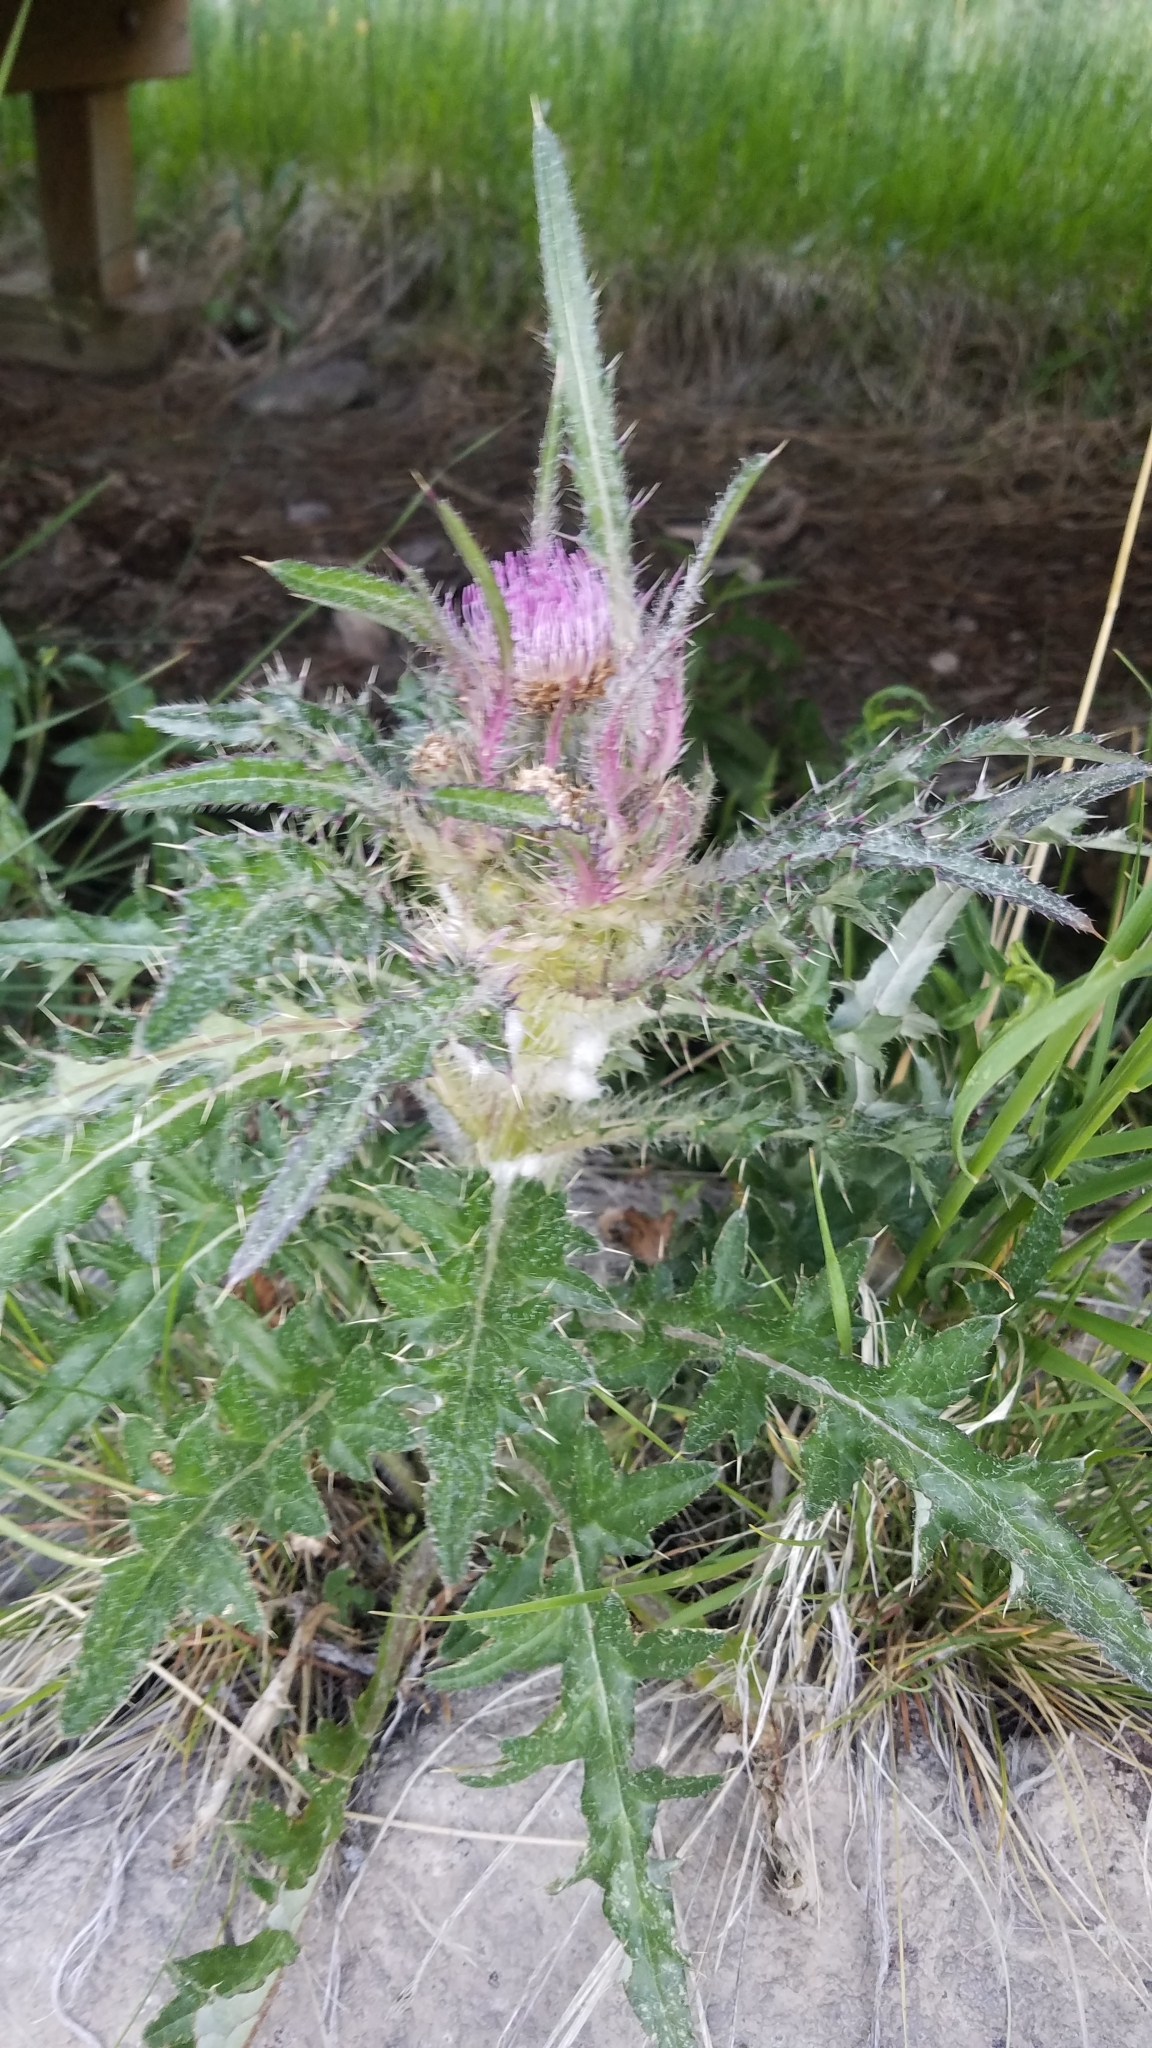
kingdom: Plantae
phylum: Tracheophyta
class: Magnoliopsida
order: Asterales
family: Asteraceae
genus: Cirsium
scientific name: Cirsium scariosum
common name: Meadow thistle
